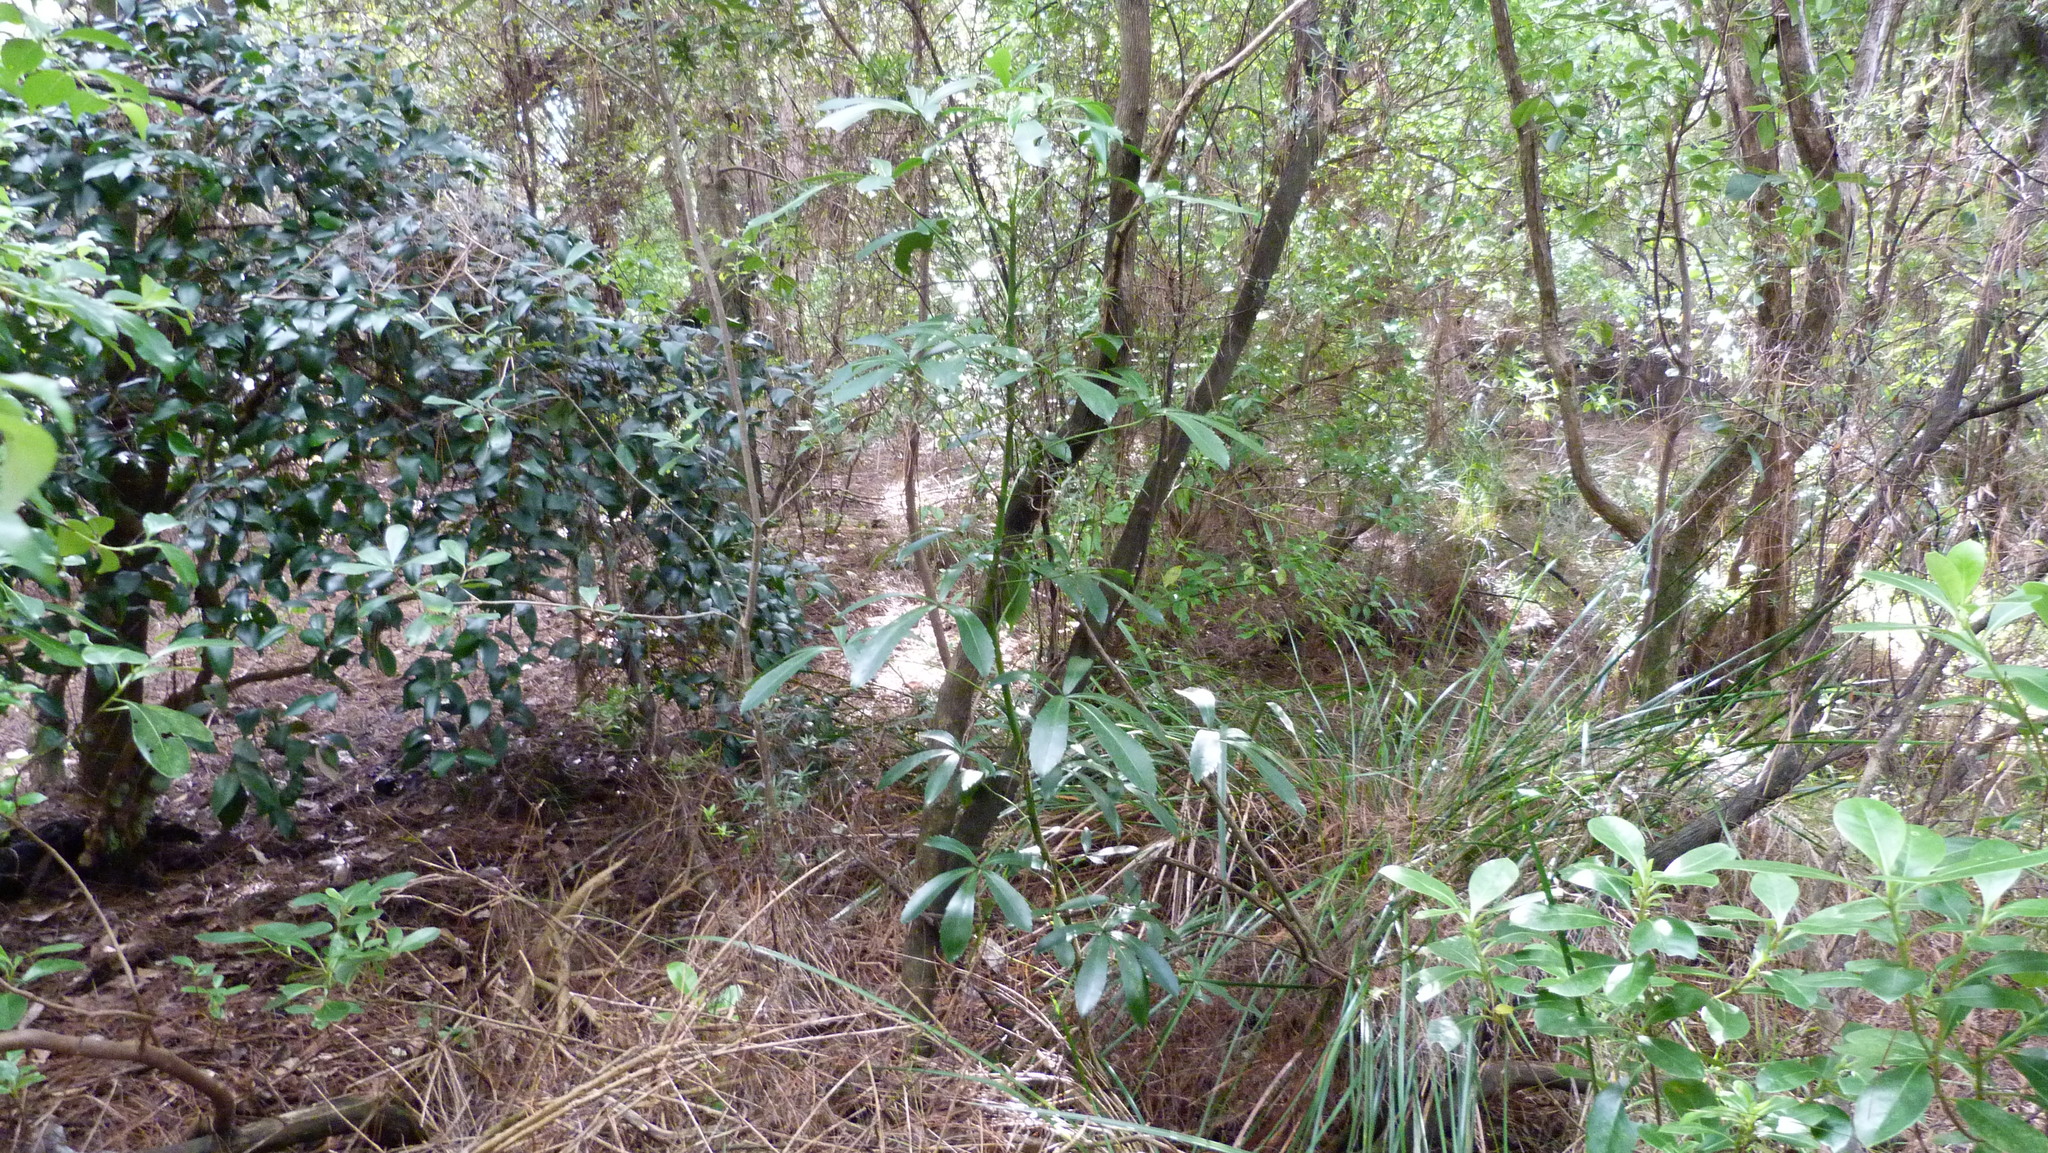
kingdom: Plantae
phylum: Tracheophyta
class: Magnoliopsida
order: Apiales
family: Araliaceae
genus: Pseudopanax
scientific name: Pseudopanax lessonii
